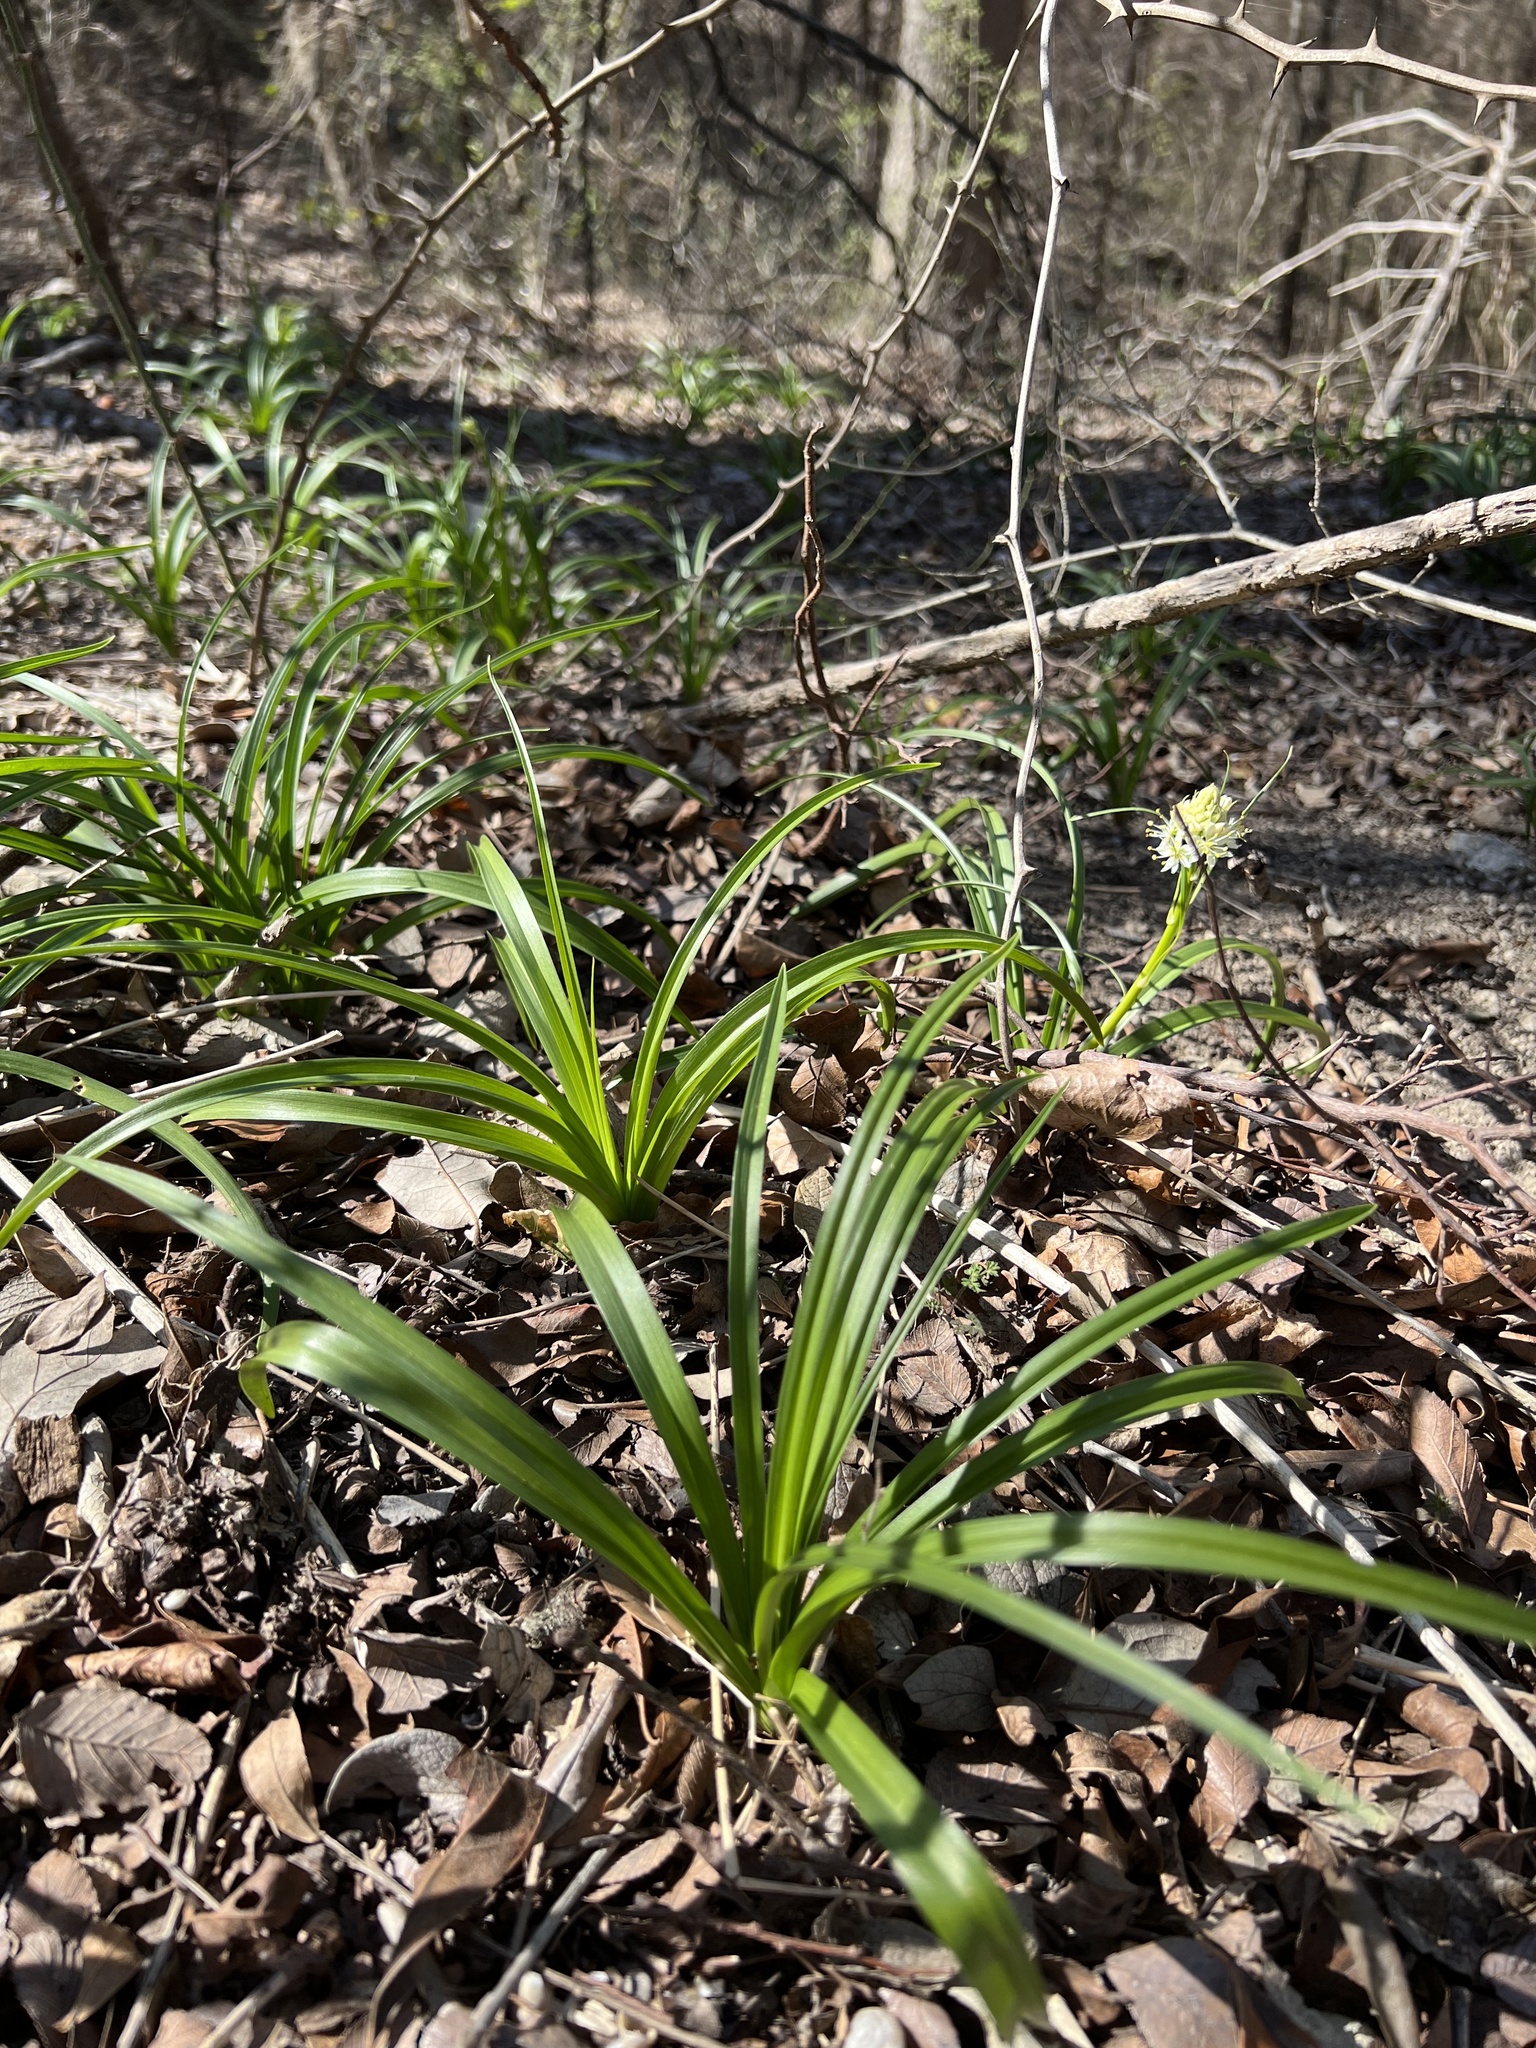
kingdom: Plantae
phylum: Tracheophyta
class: Liliopsida
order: Liliales
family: Melanthiaceae
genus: Toxicoscordion
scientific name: Toxicoscordion nuttallii
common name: Poison sego
